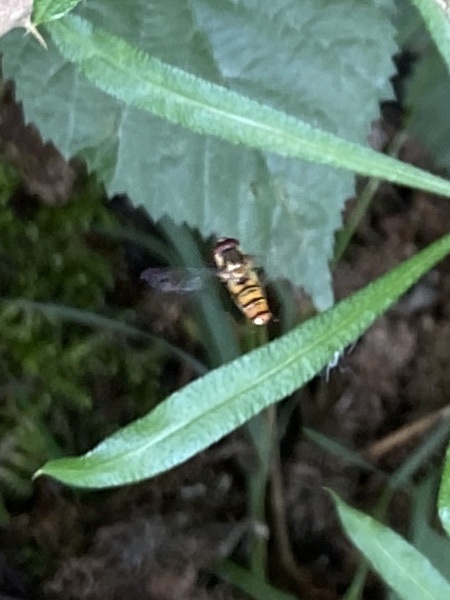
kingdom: Animalia
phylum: Arthropoda
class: Insecta
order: Diptera
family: Syrphidae
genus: Episyrphus
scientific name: Episyrphus balteatus
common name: Marmalade hoverfly
